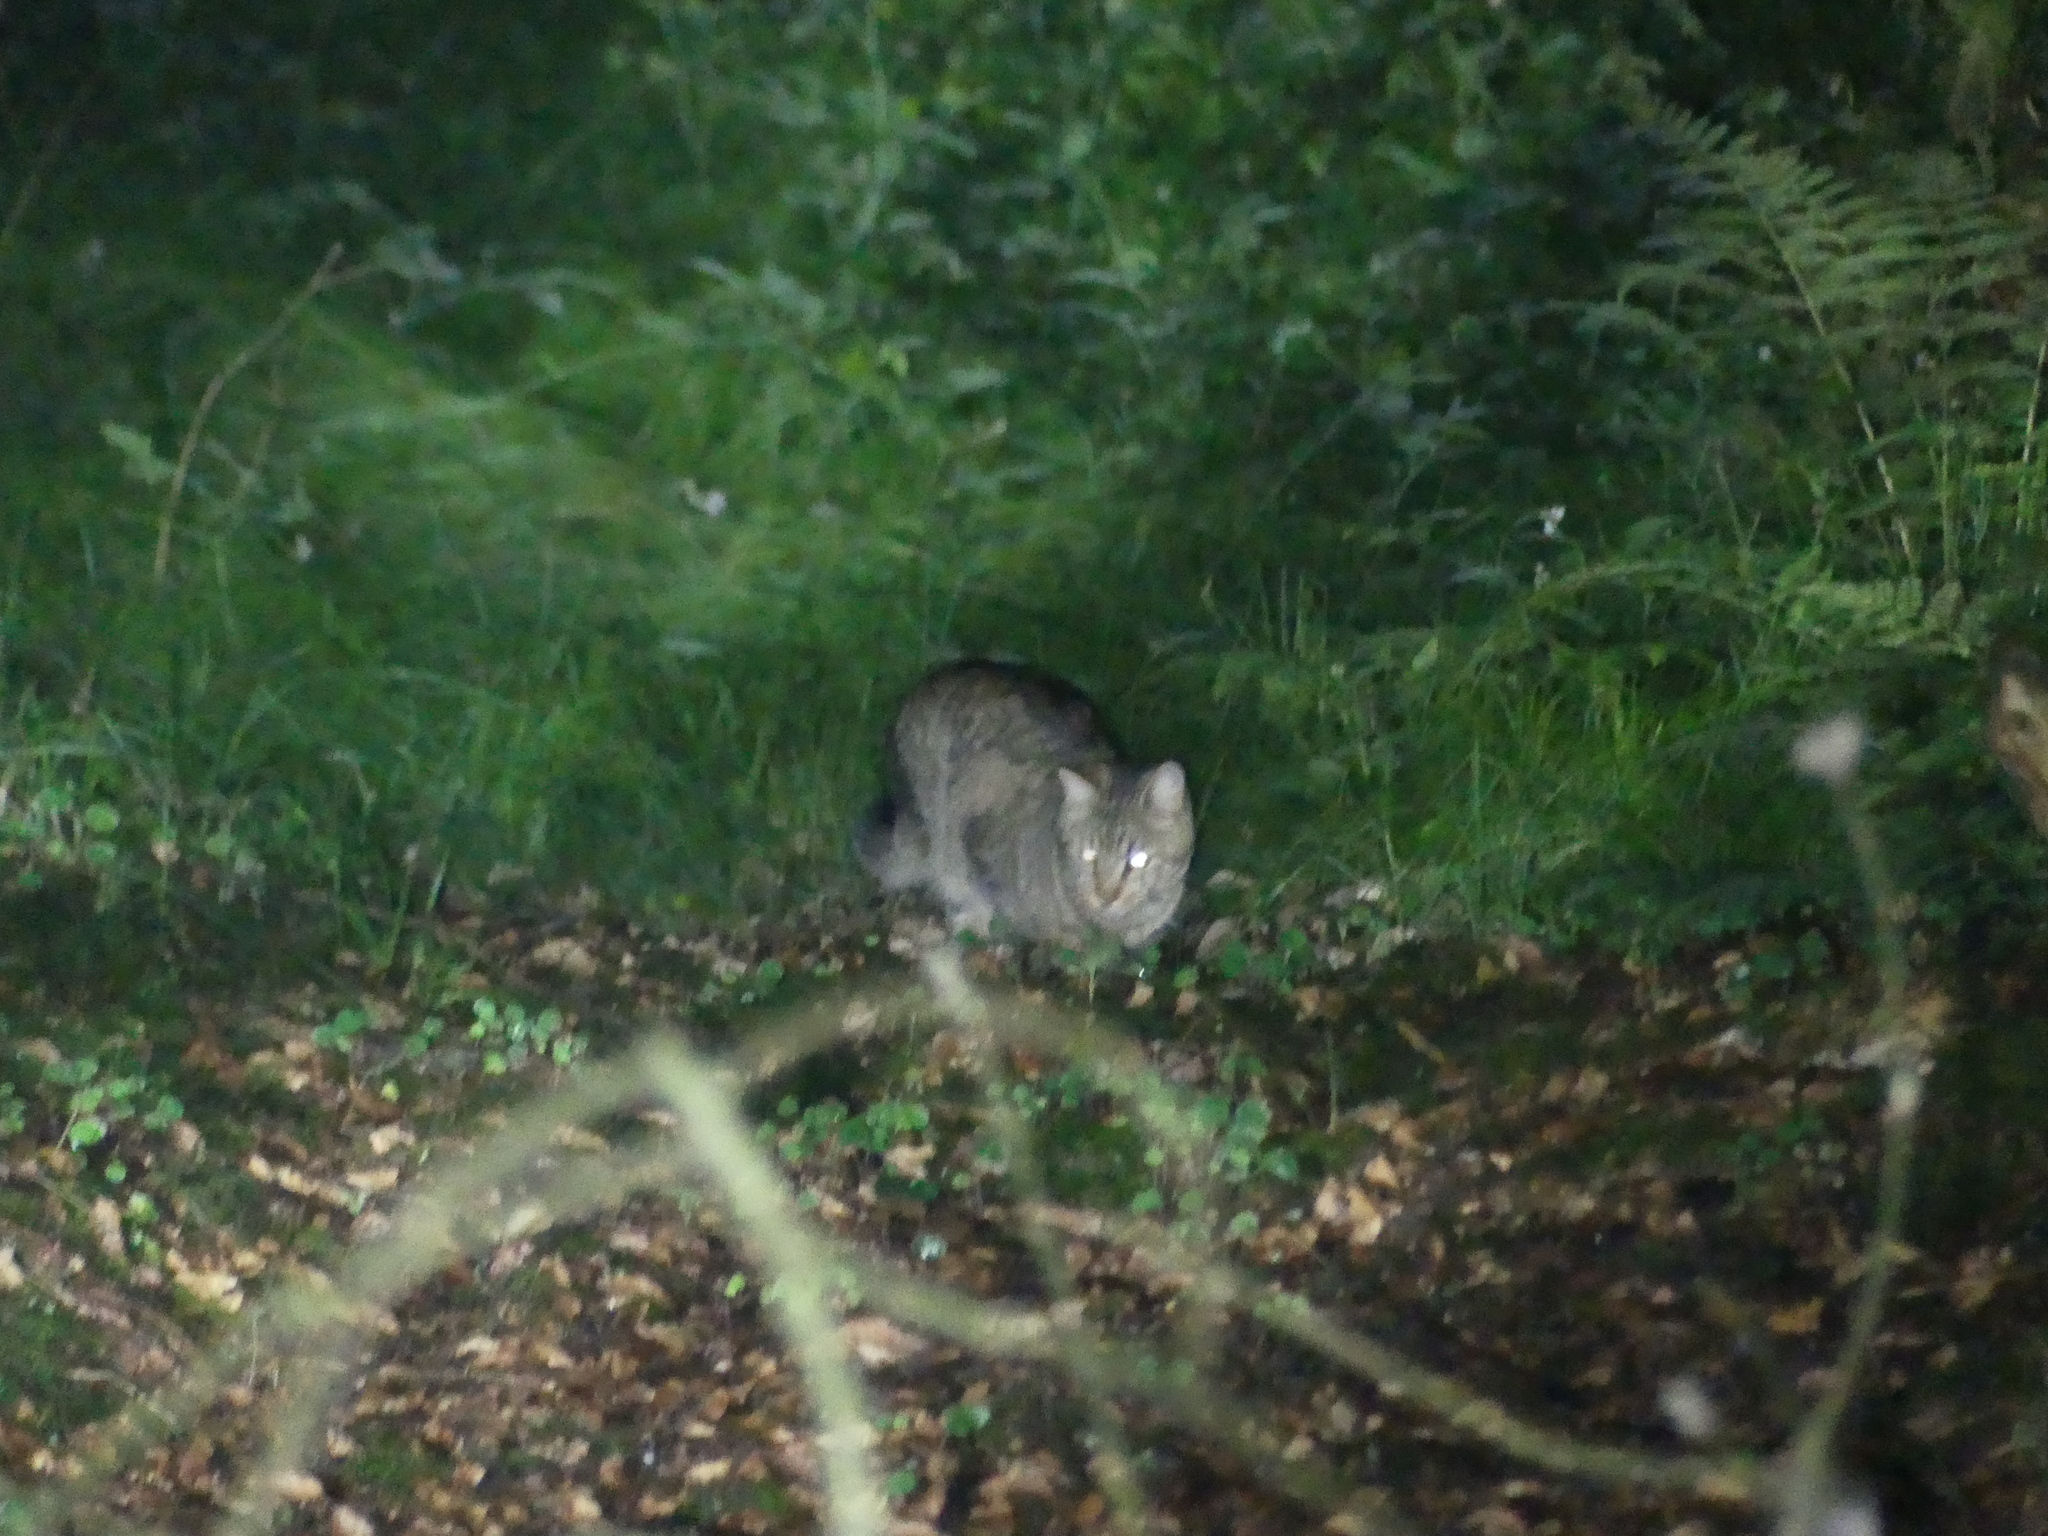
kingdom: Animalia
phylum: Chordata
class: Mammalia
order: Carnivora
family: Felidae
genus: Felis
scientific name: Felis catus
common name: Domestic cat
